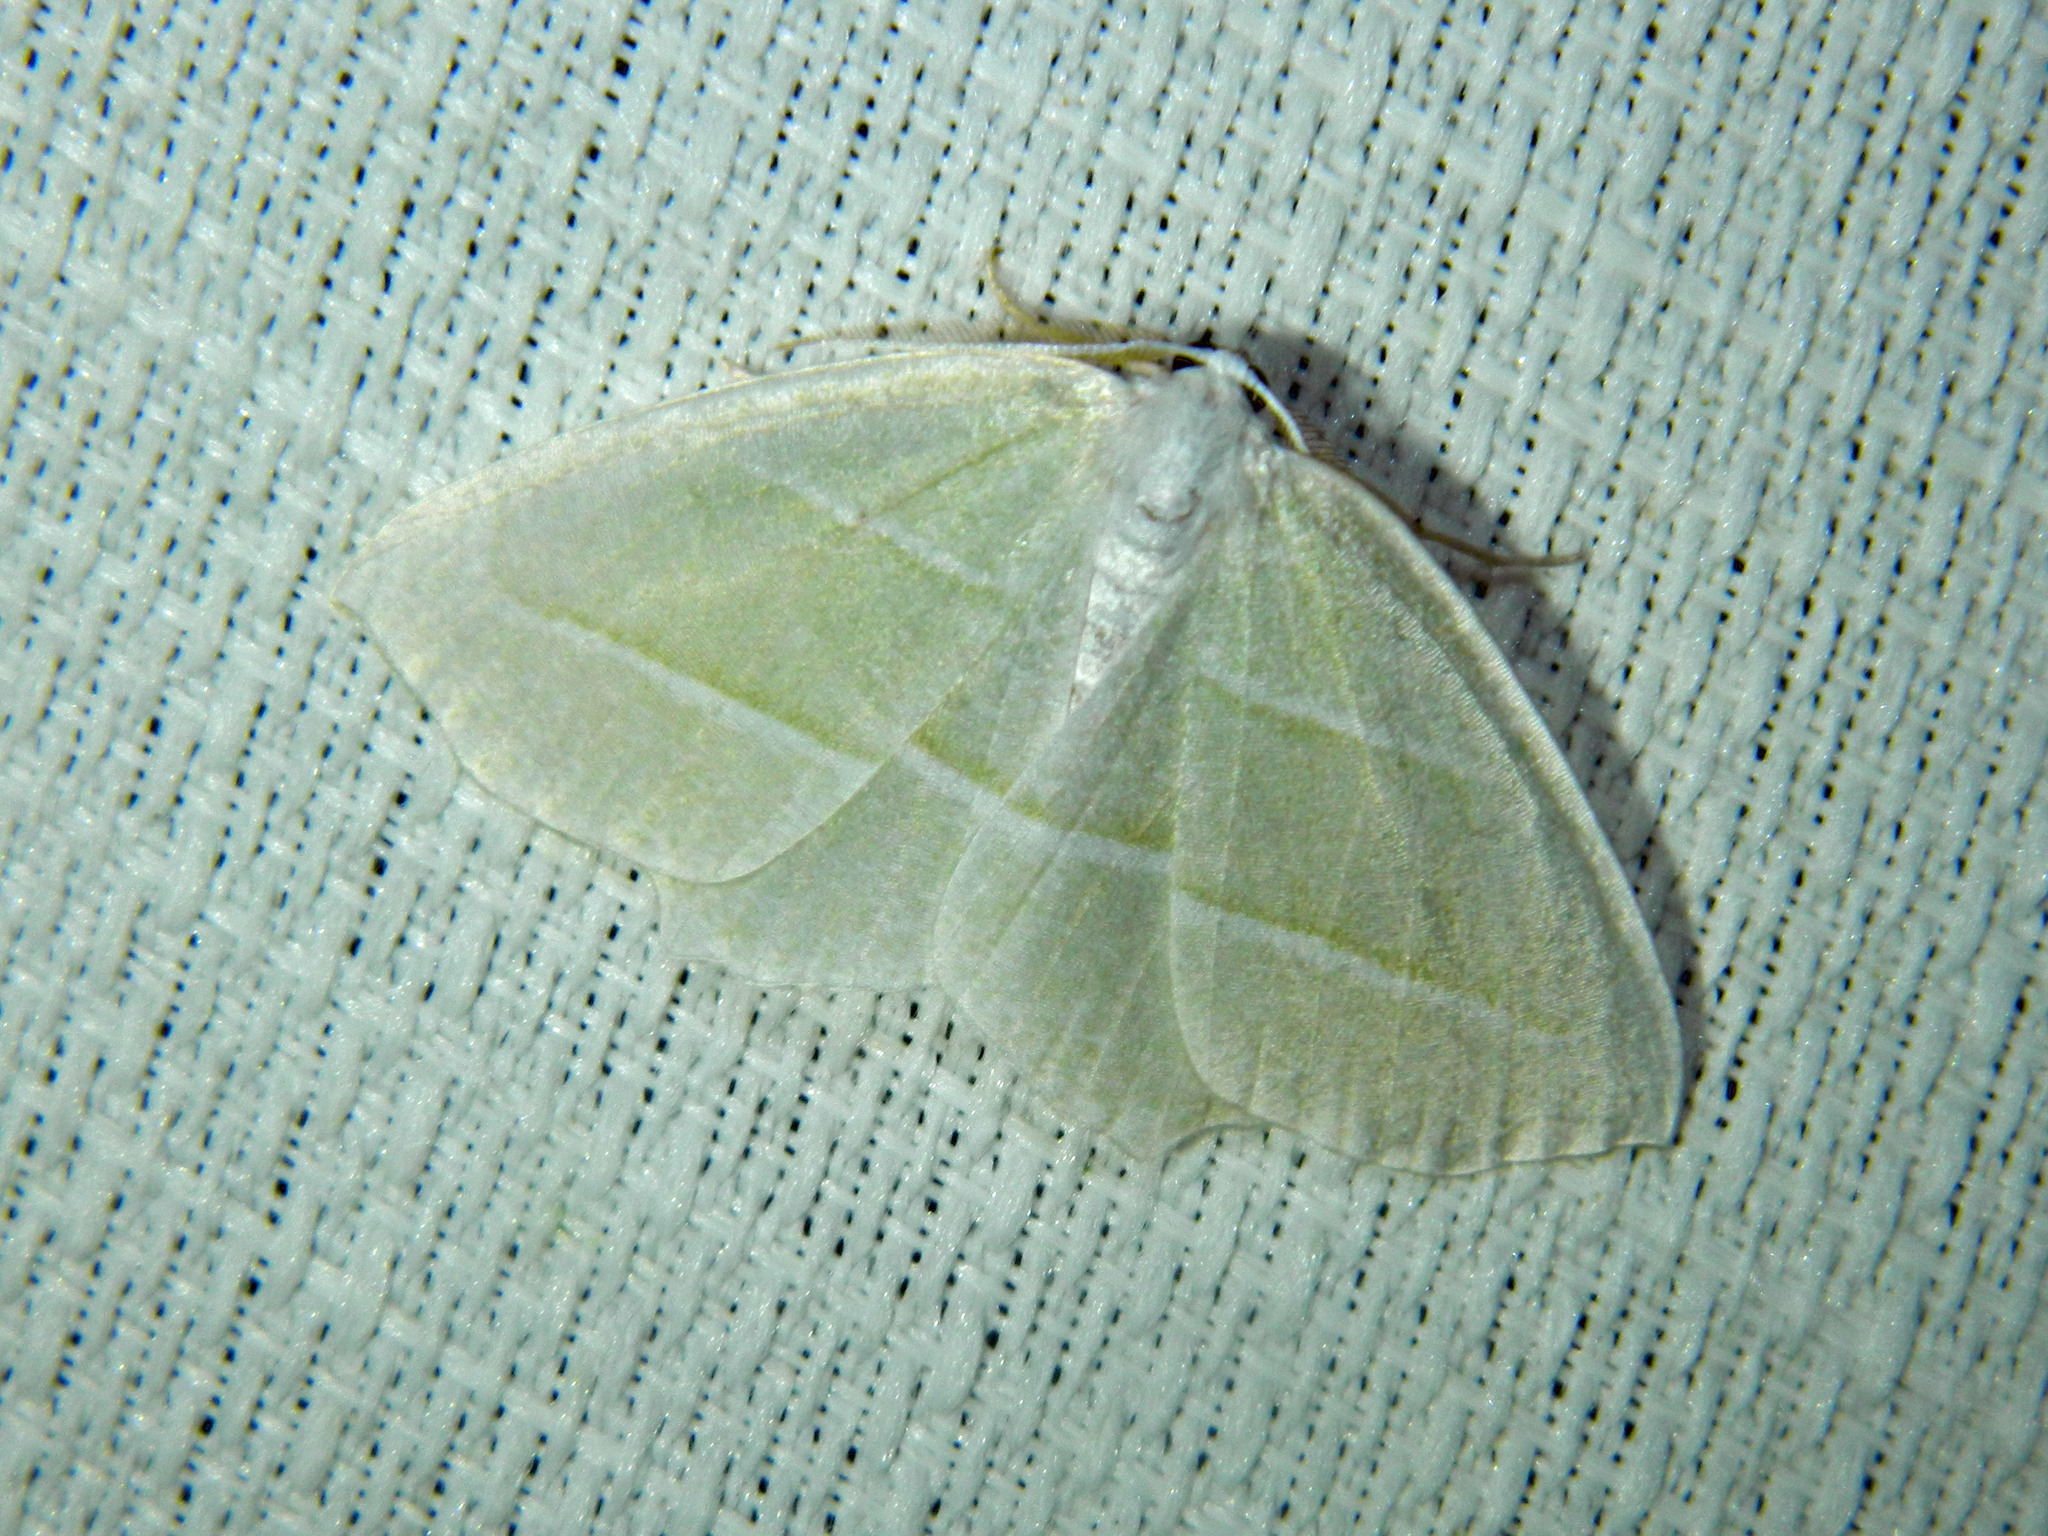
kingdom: Animalia
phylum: Arthropoda
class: Insecta
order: Lepidoptera
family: Geometridae
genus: Campaea
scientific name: Campaea perlata
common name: Fringed looper
